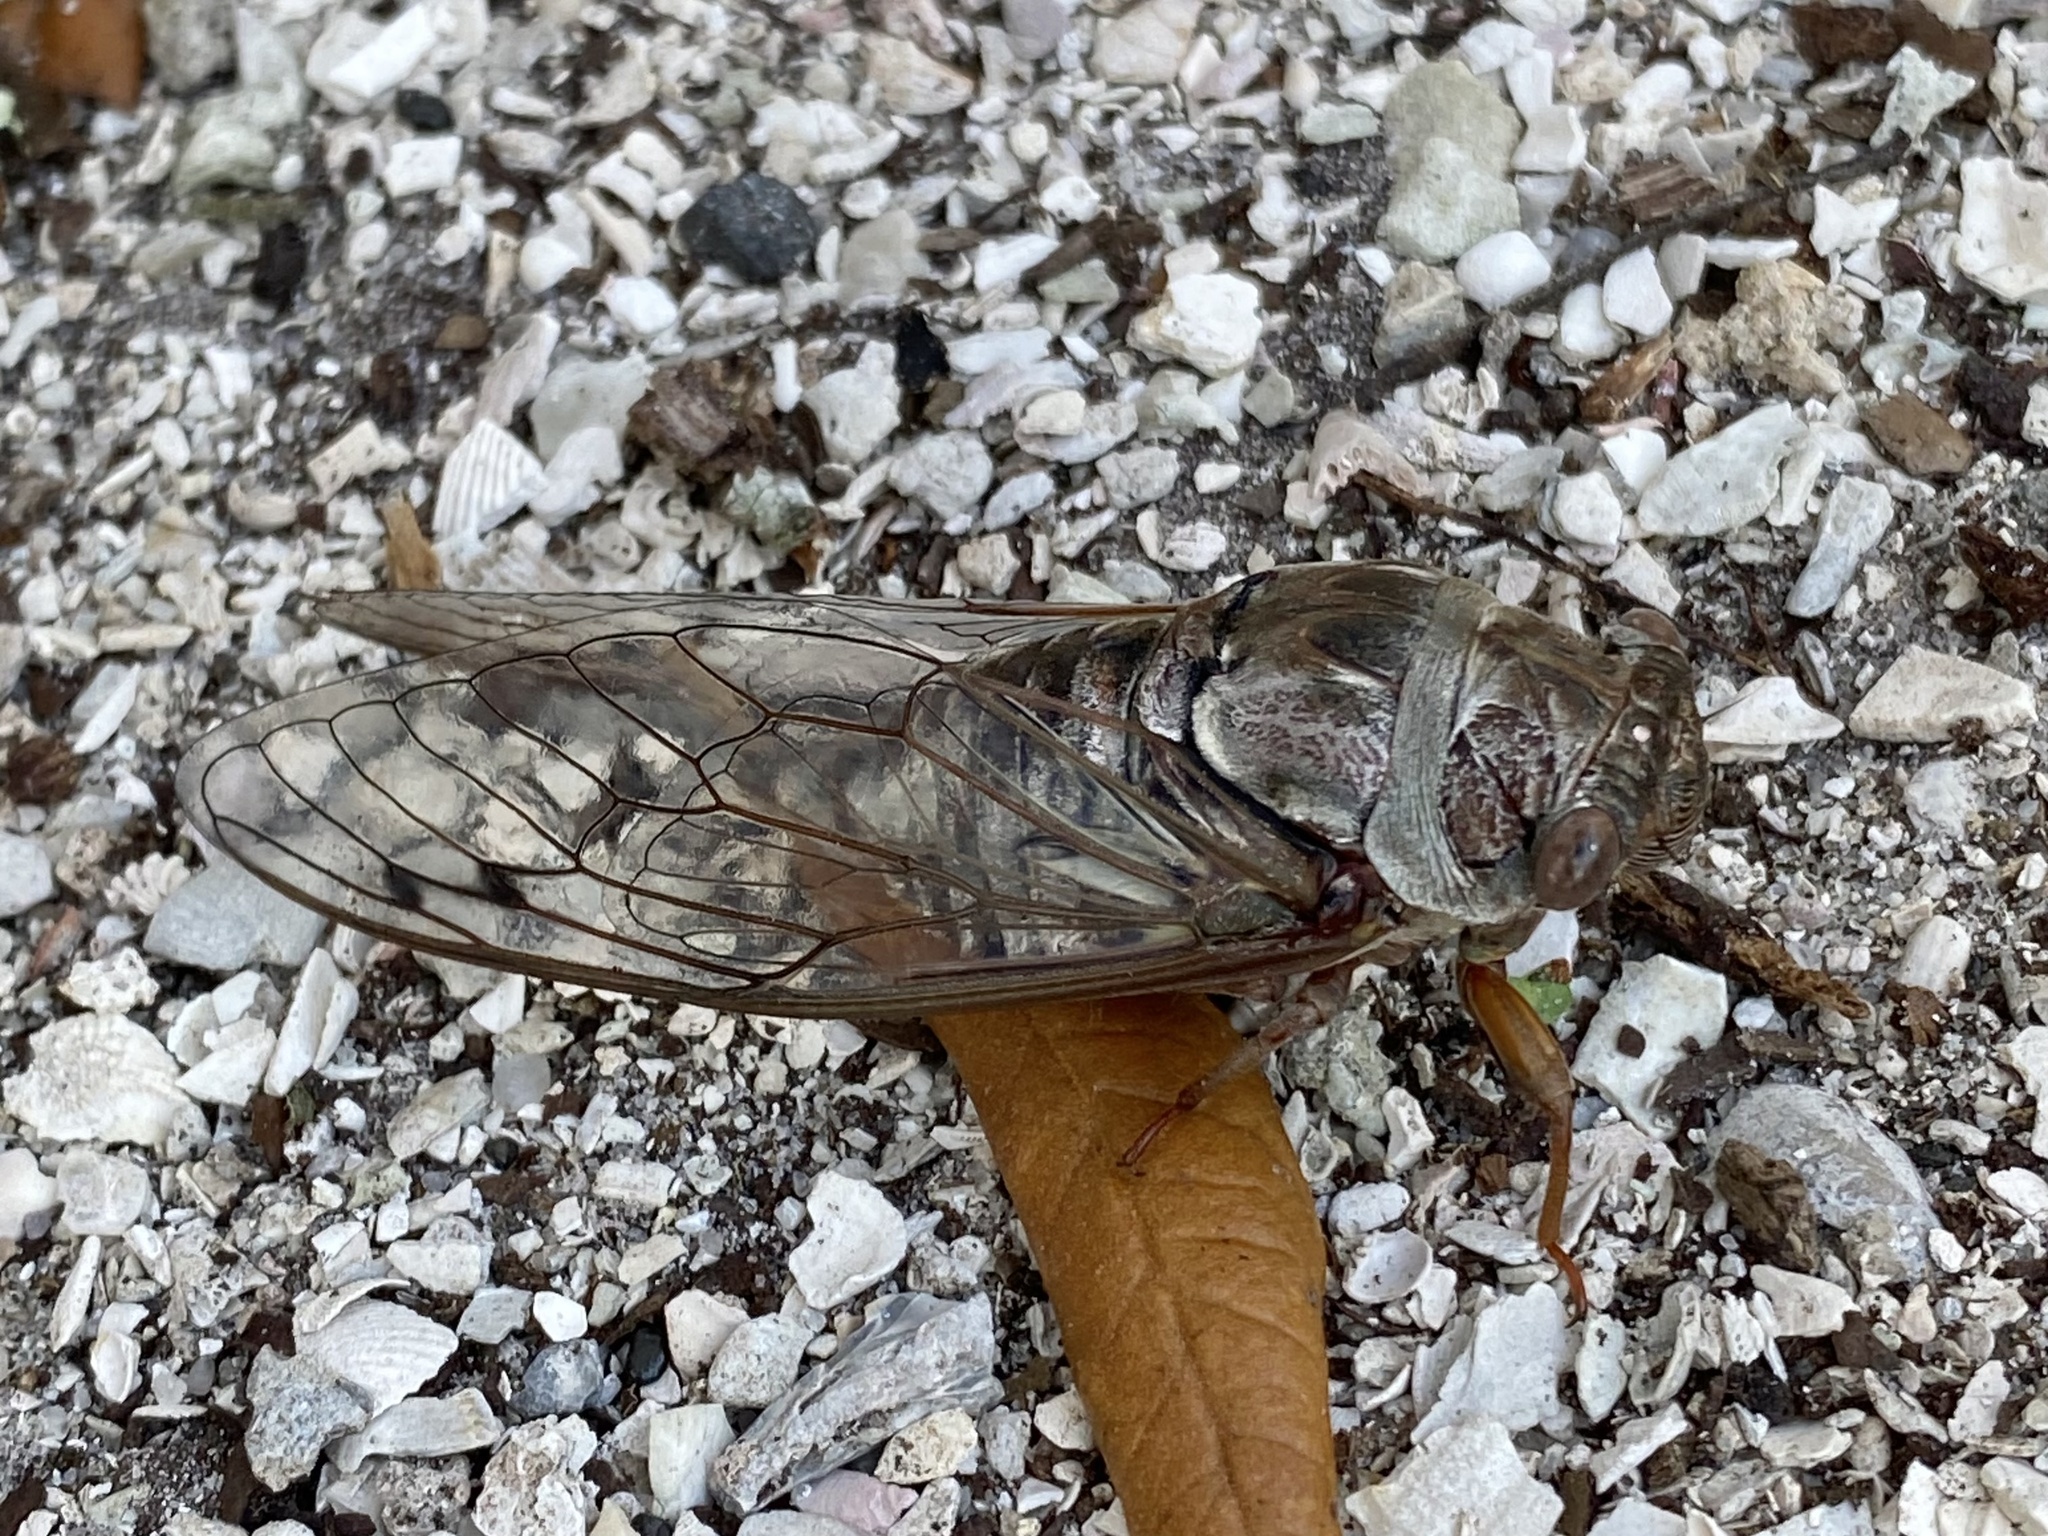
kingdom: Animalia
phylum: Arthropoda
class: Insecta
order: Hemiptera
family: Cicadidae
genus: Megatibicen
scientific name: Megatibicen resonans
